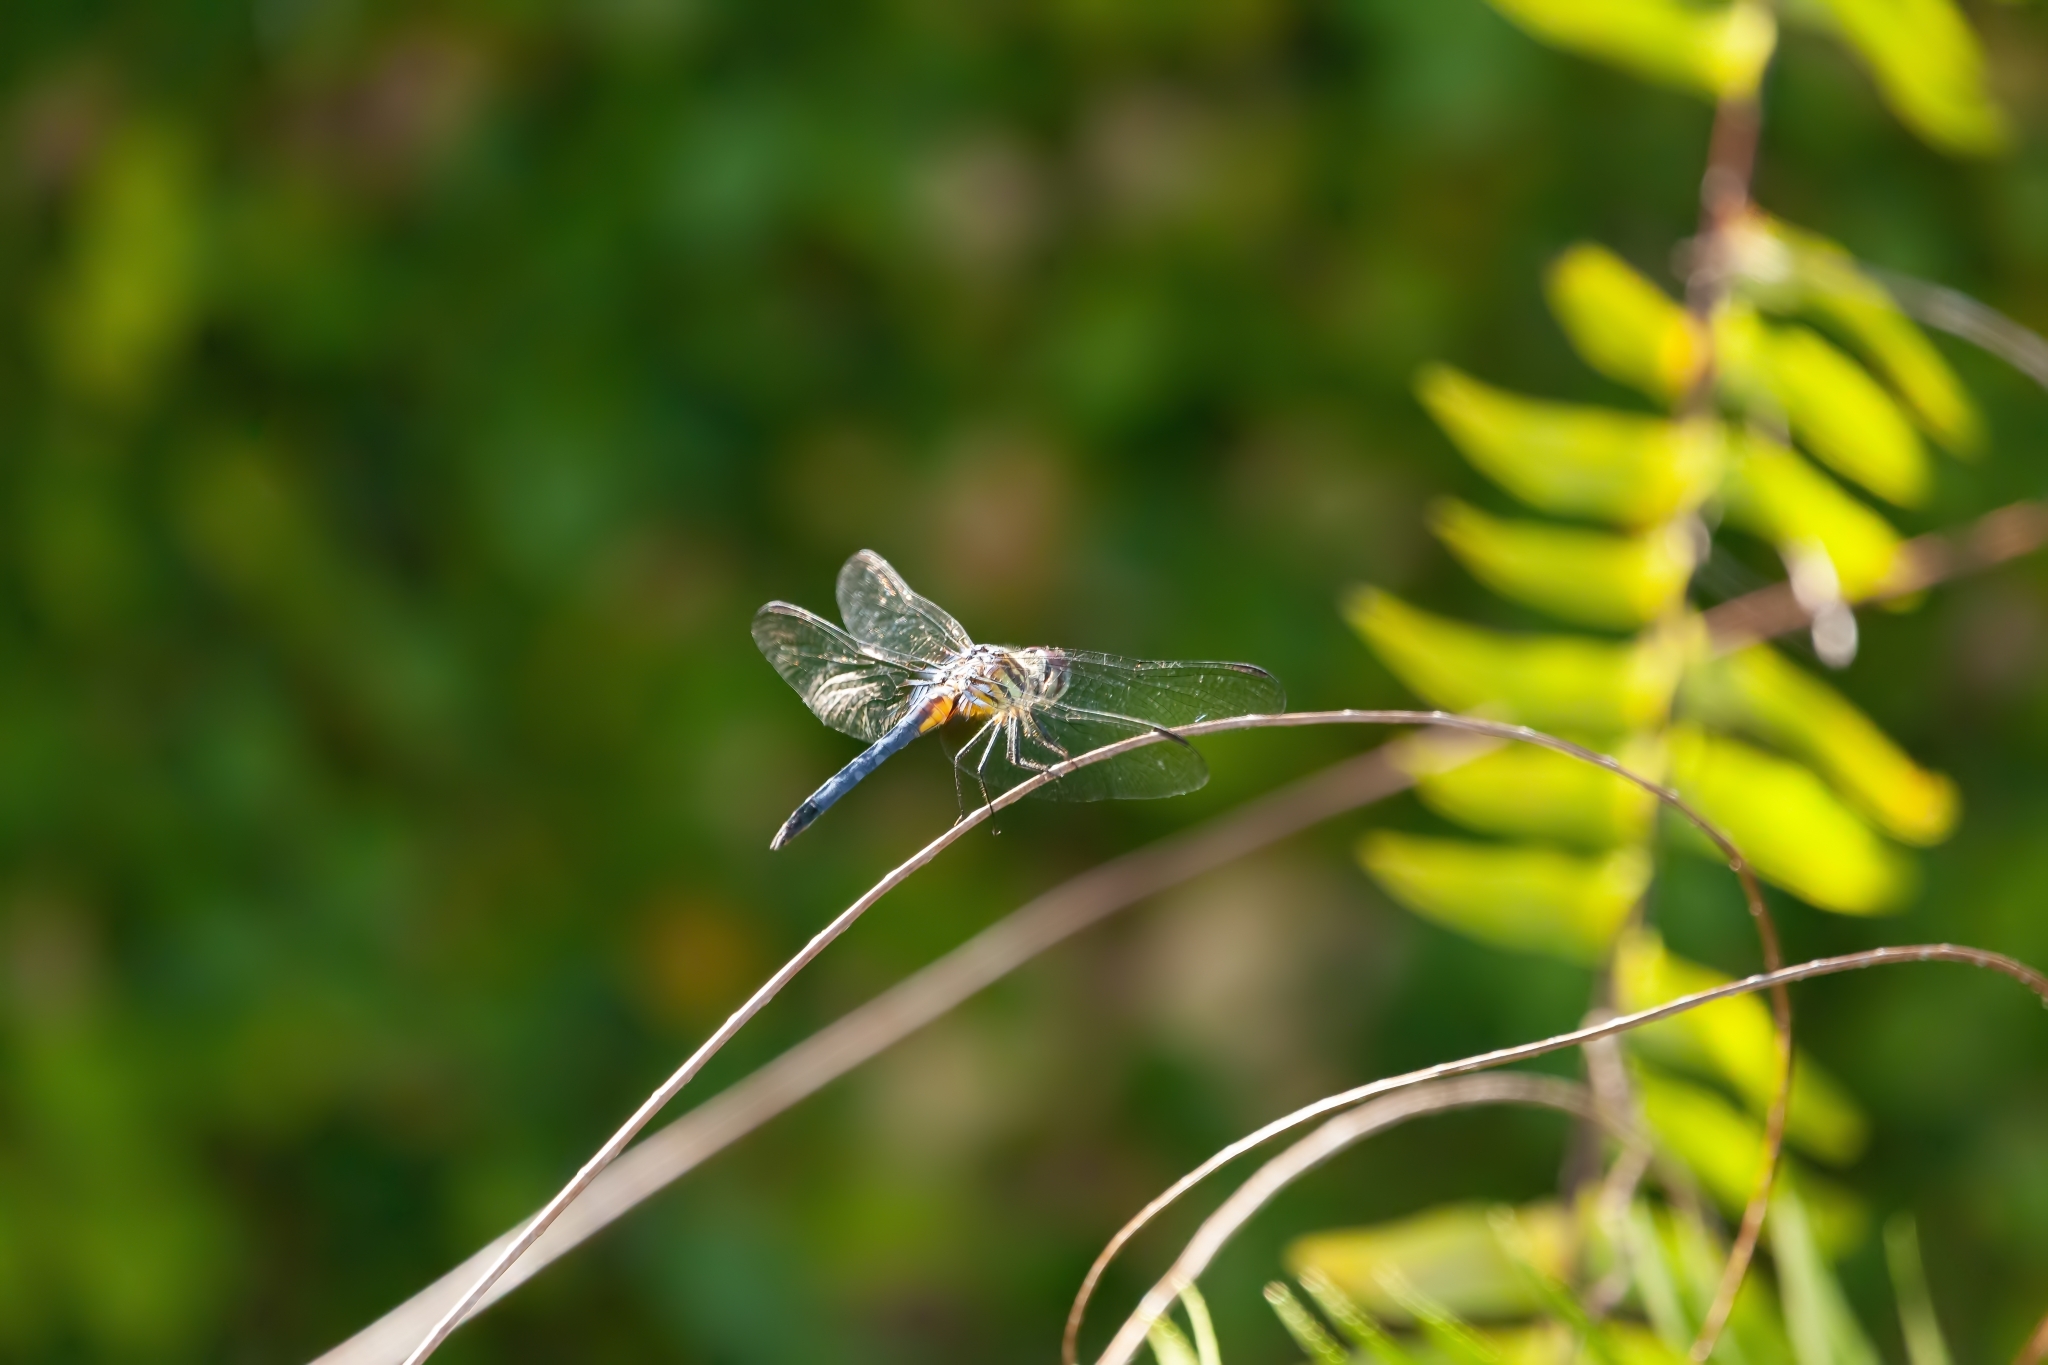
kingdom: Animalia
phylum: Arthropoda
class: Insecta
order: Odonata
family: Libellulidae
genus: Pachydiplax
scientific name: Pachydiplax longipennis
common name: Blue dasher
